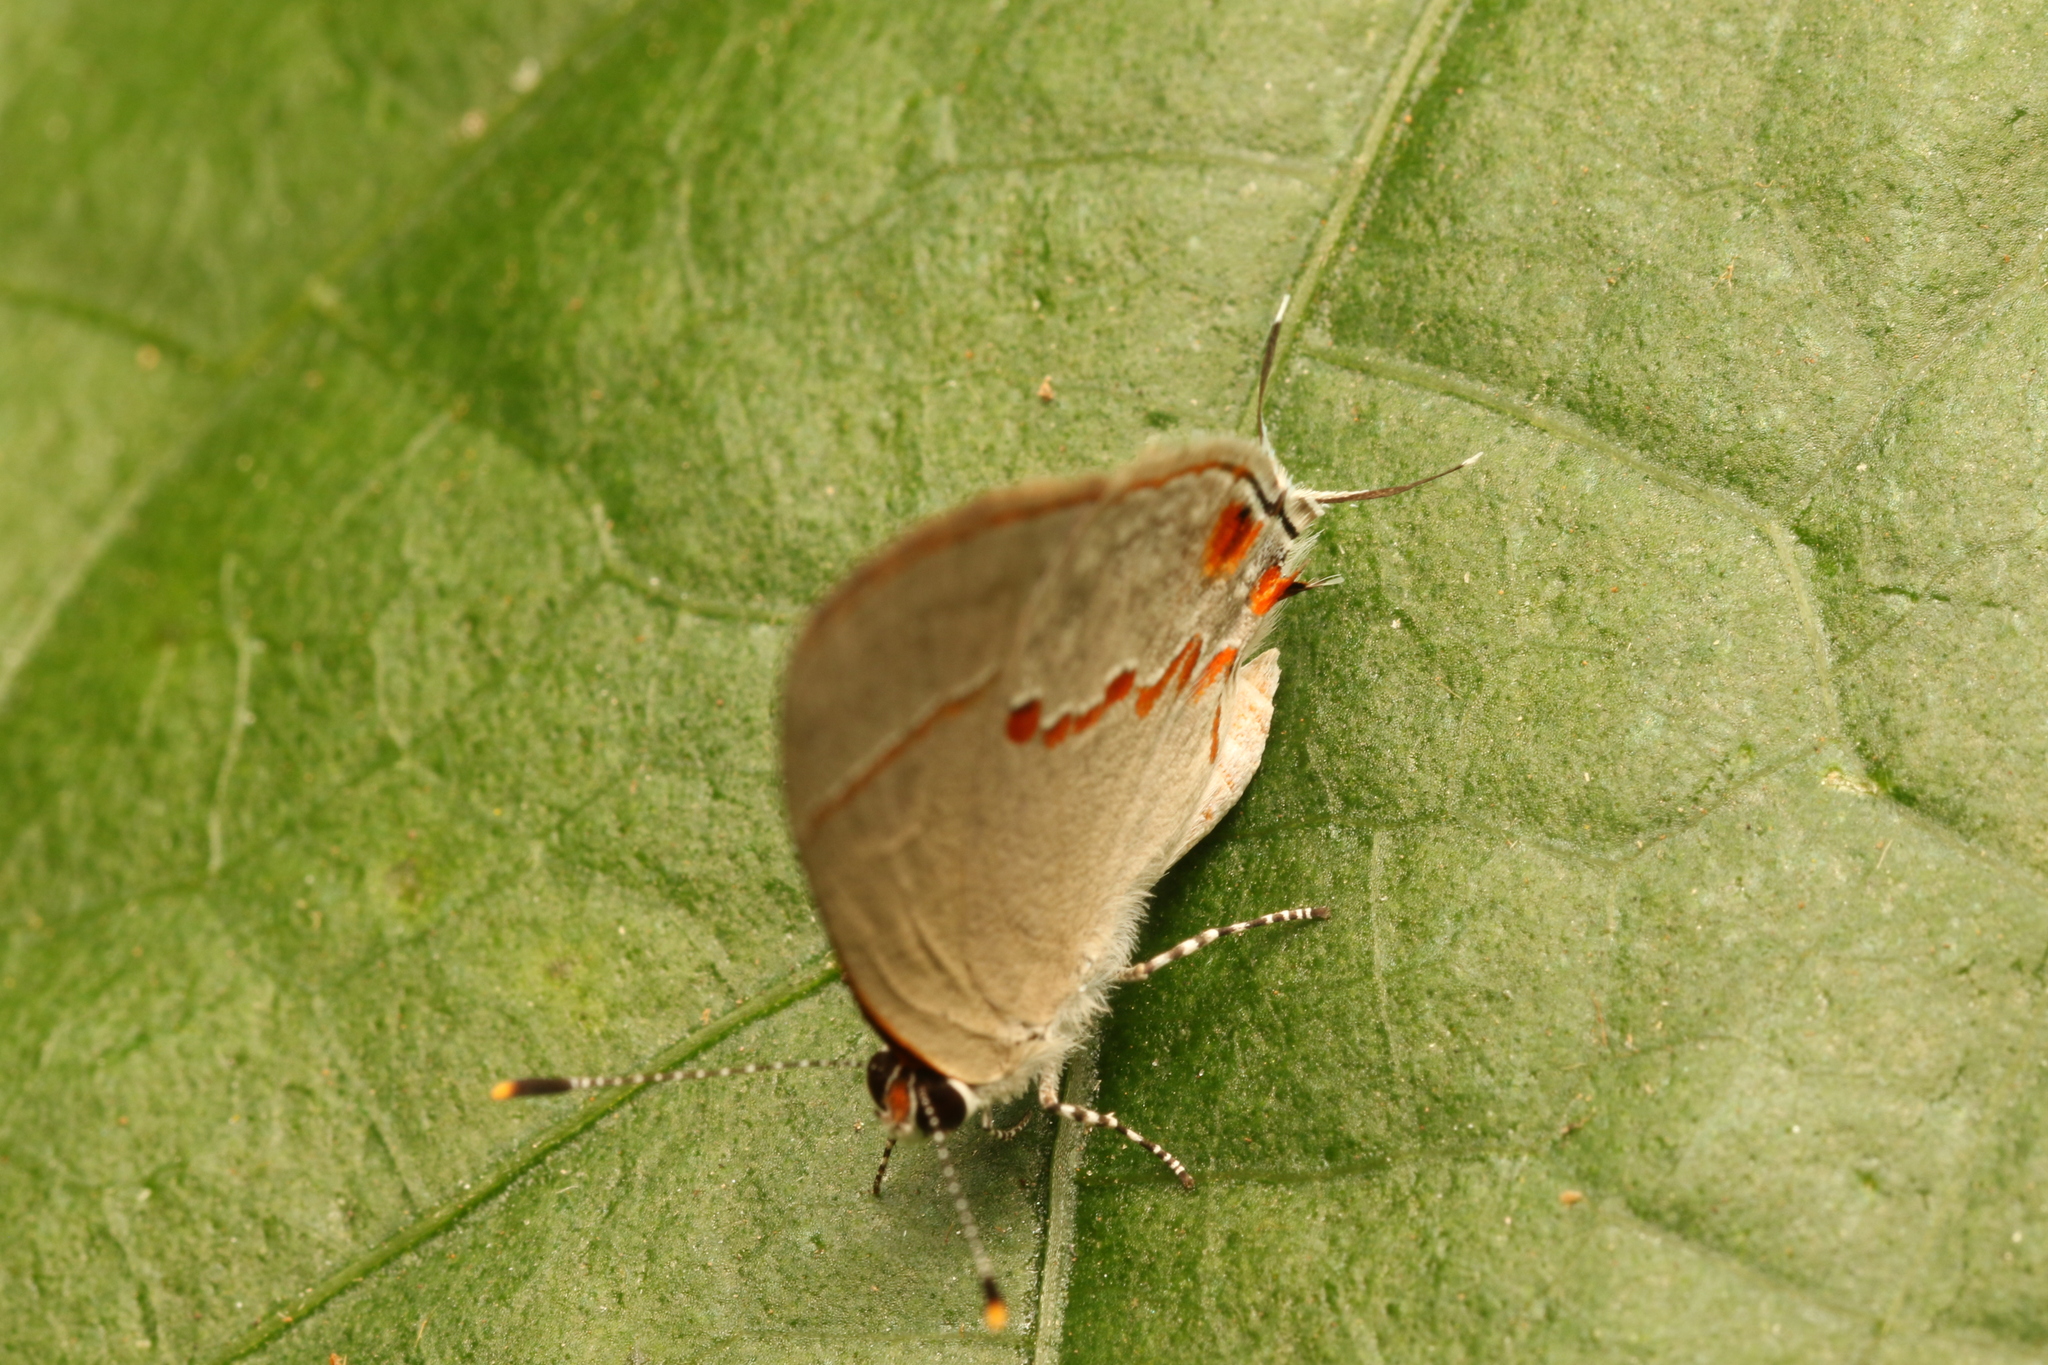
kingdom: Animalia
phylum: Arthropoda
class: Insecta
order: Lepidoptera
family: Lycaenidae
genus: Thecla
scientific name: Thecla azia
